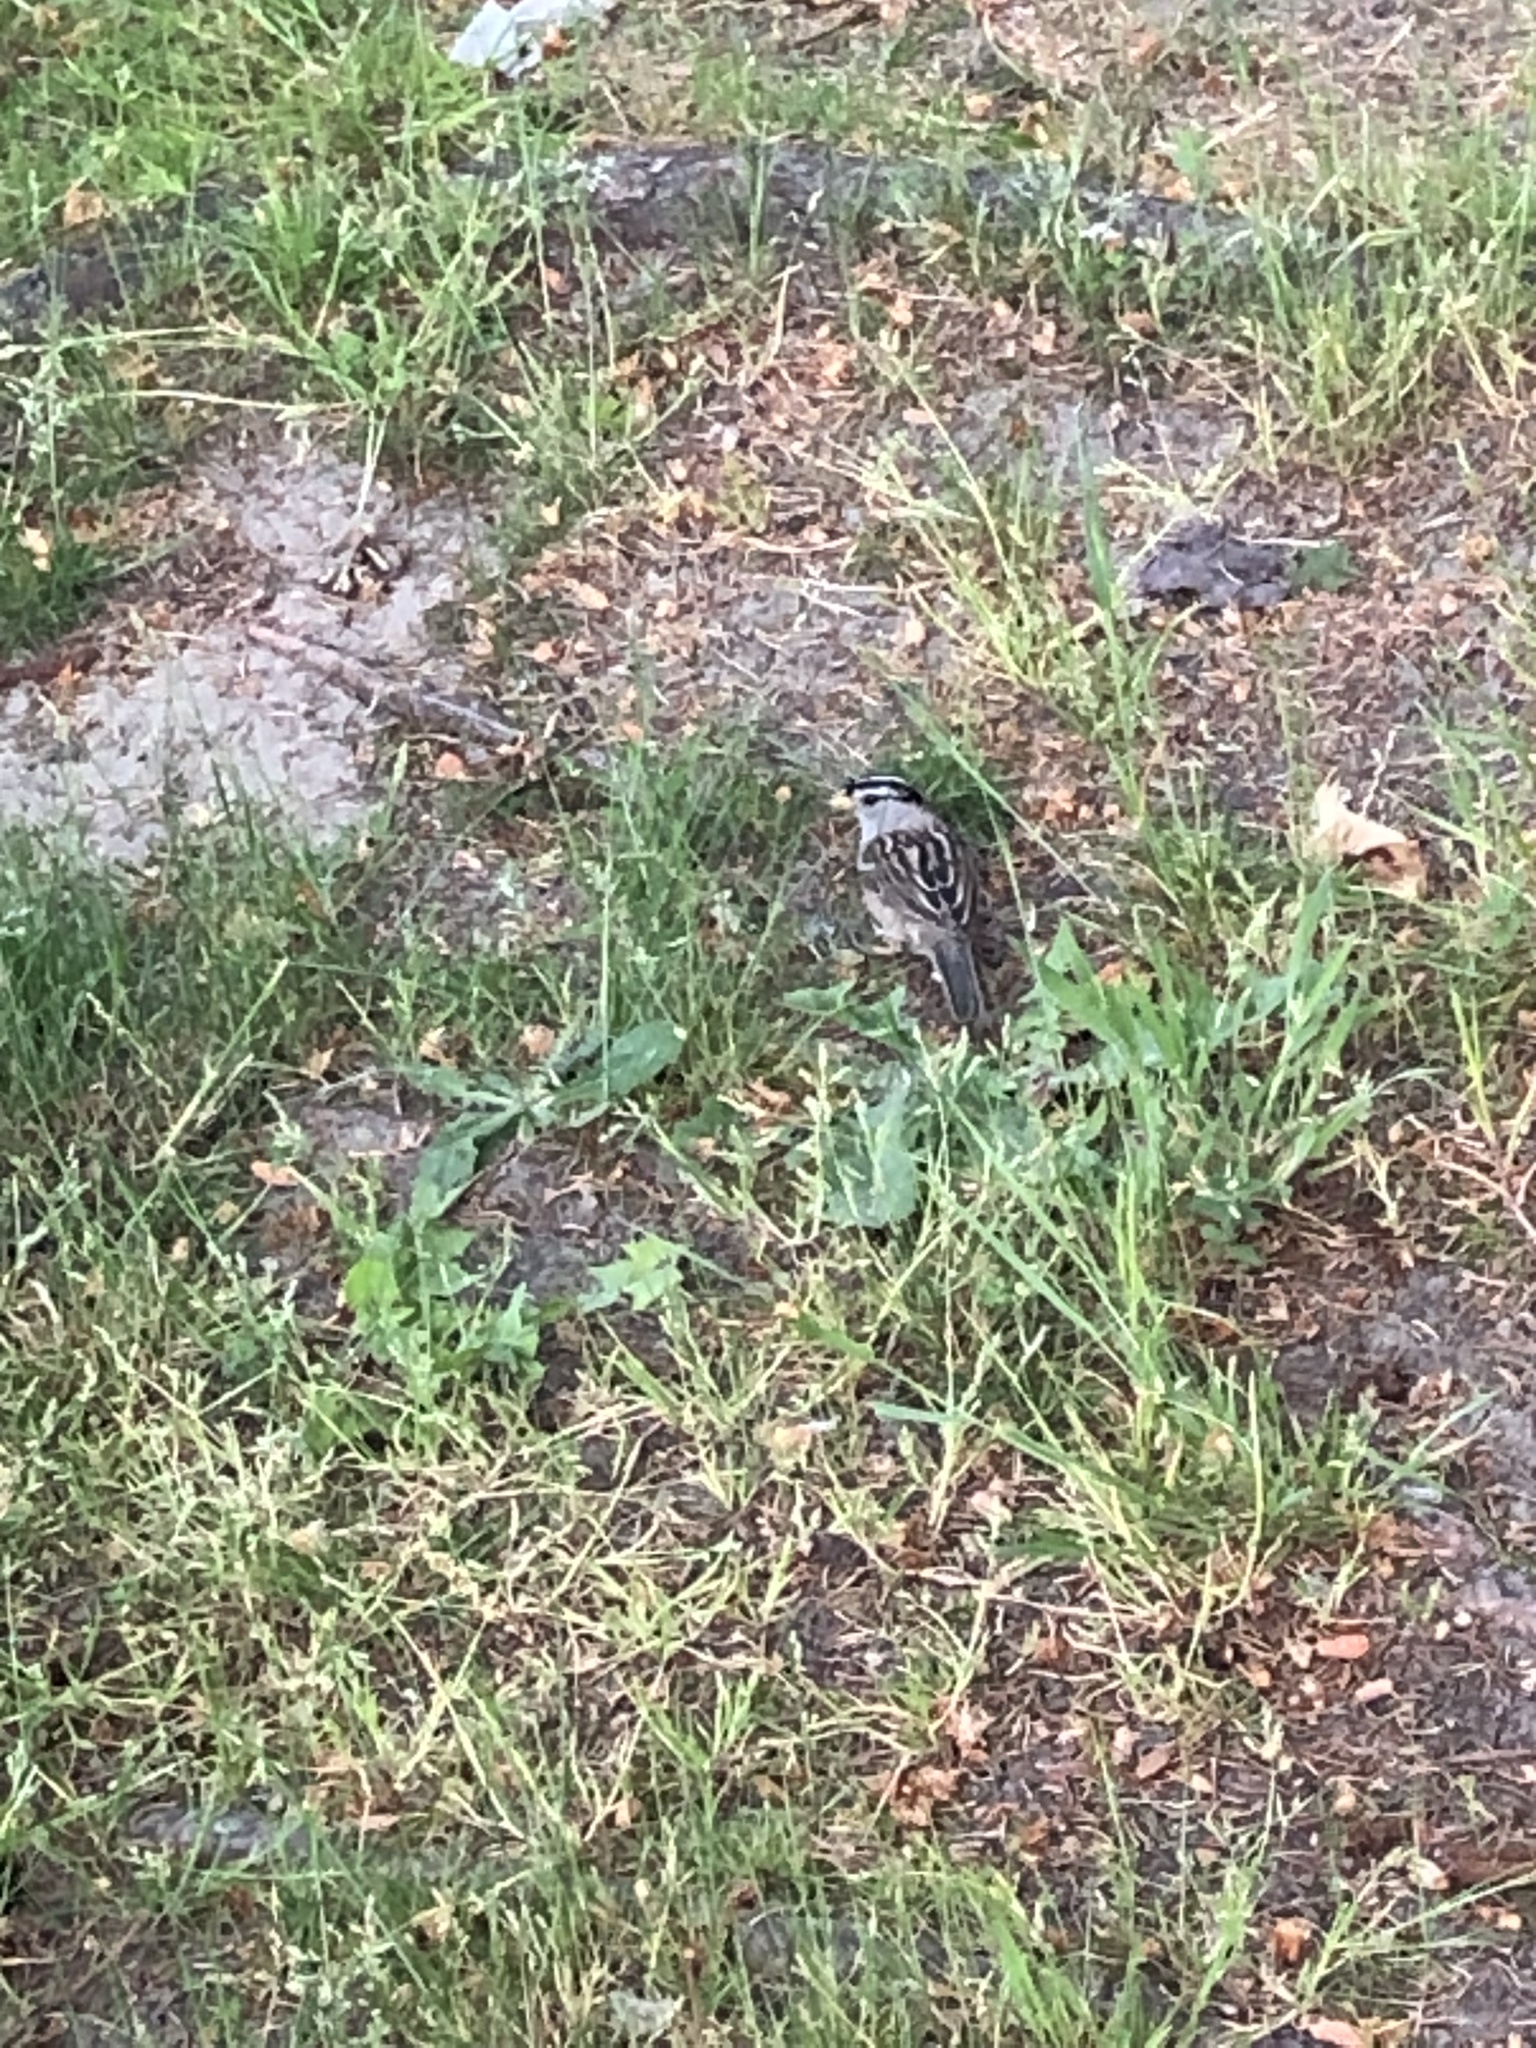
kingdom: Animalia
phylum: Chordata
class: Aves
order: Passeriformes
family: Passerellidae
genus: Zonotrichia
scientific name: Zonotrichia leucophrys
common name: White-crowned sparrow
